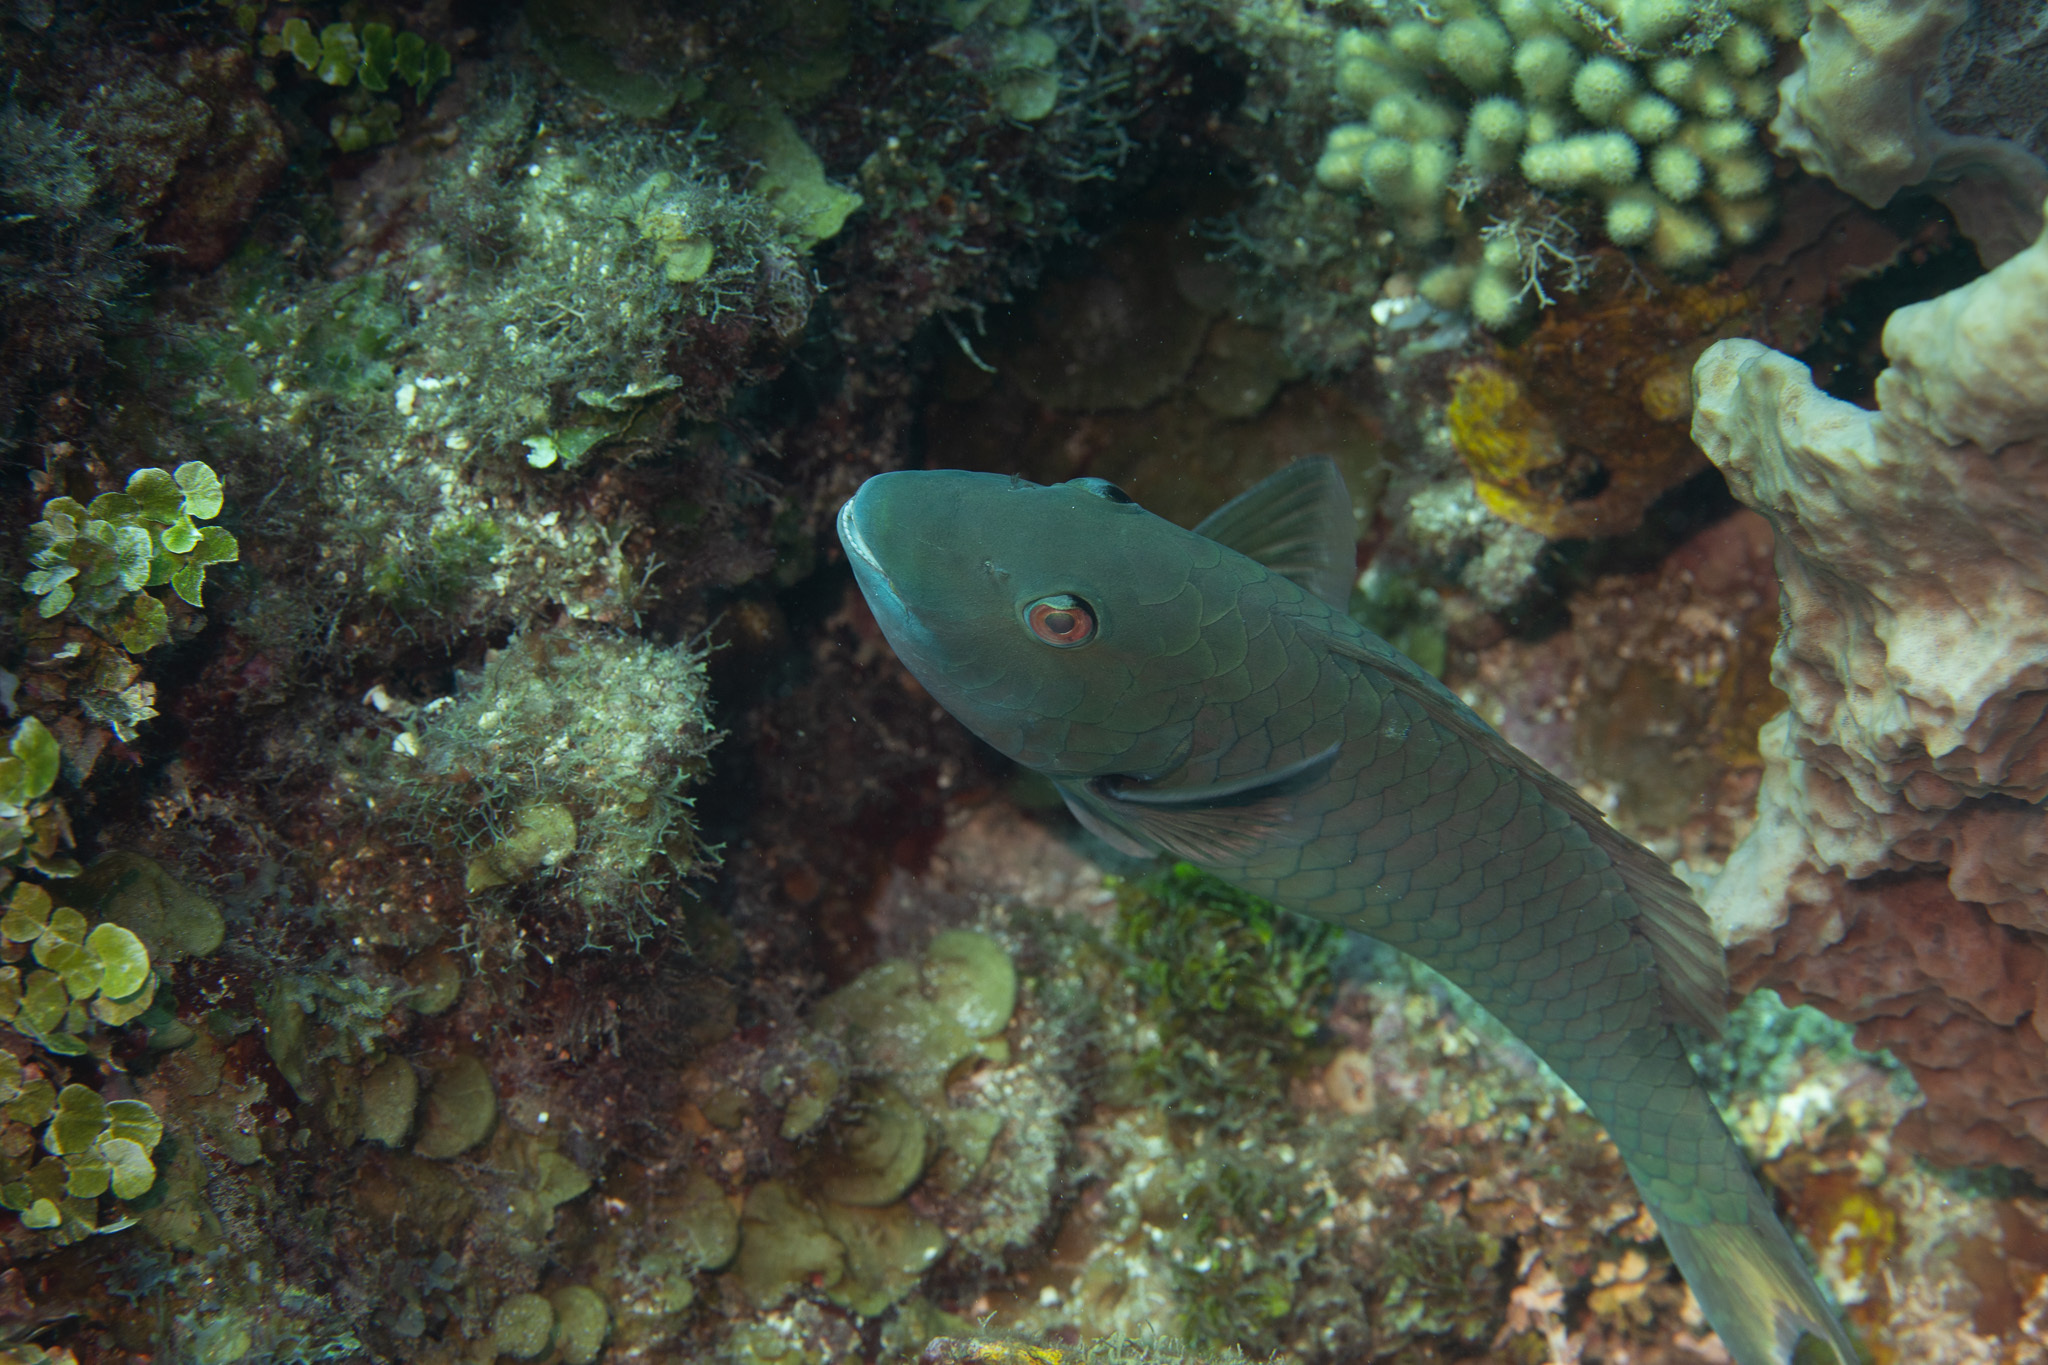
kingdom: Animalia
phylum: Chordata
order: Perciformes
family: Scaridae
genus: Sparisoma
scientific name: Sparisoma rubripinne
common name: Redfin parrotfish
